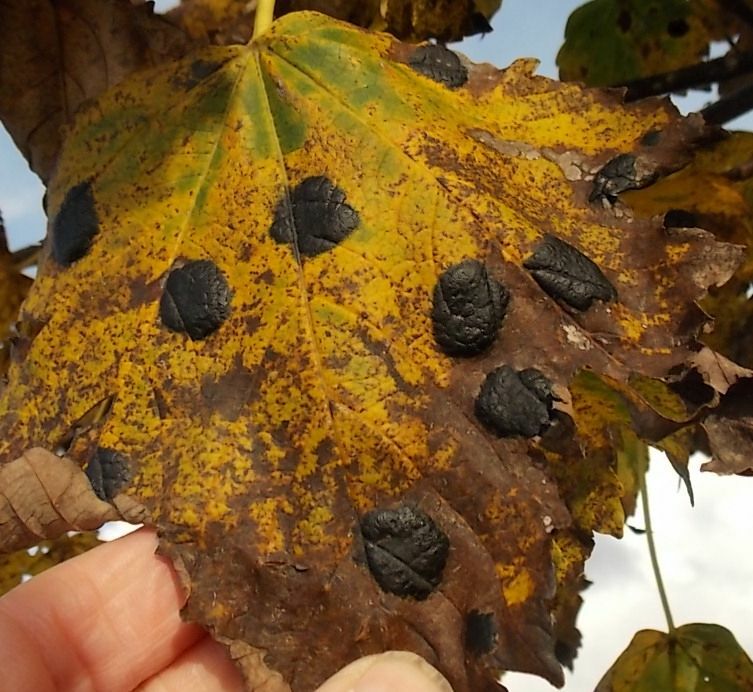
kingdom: Fungi
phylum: Ascomycota
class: Leotiomycetes
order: Rhytismatales
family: Rhytismataceae
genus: Rhytisma
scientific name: Rhytisma acerinum
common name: European tar spot
